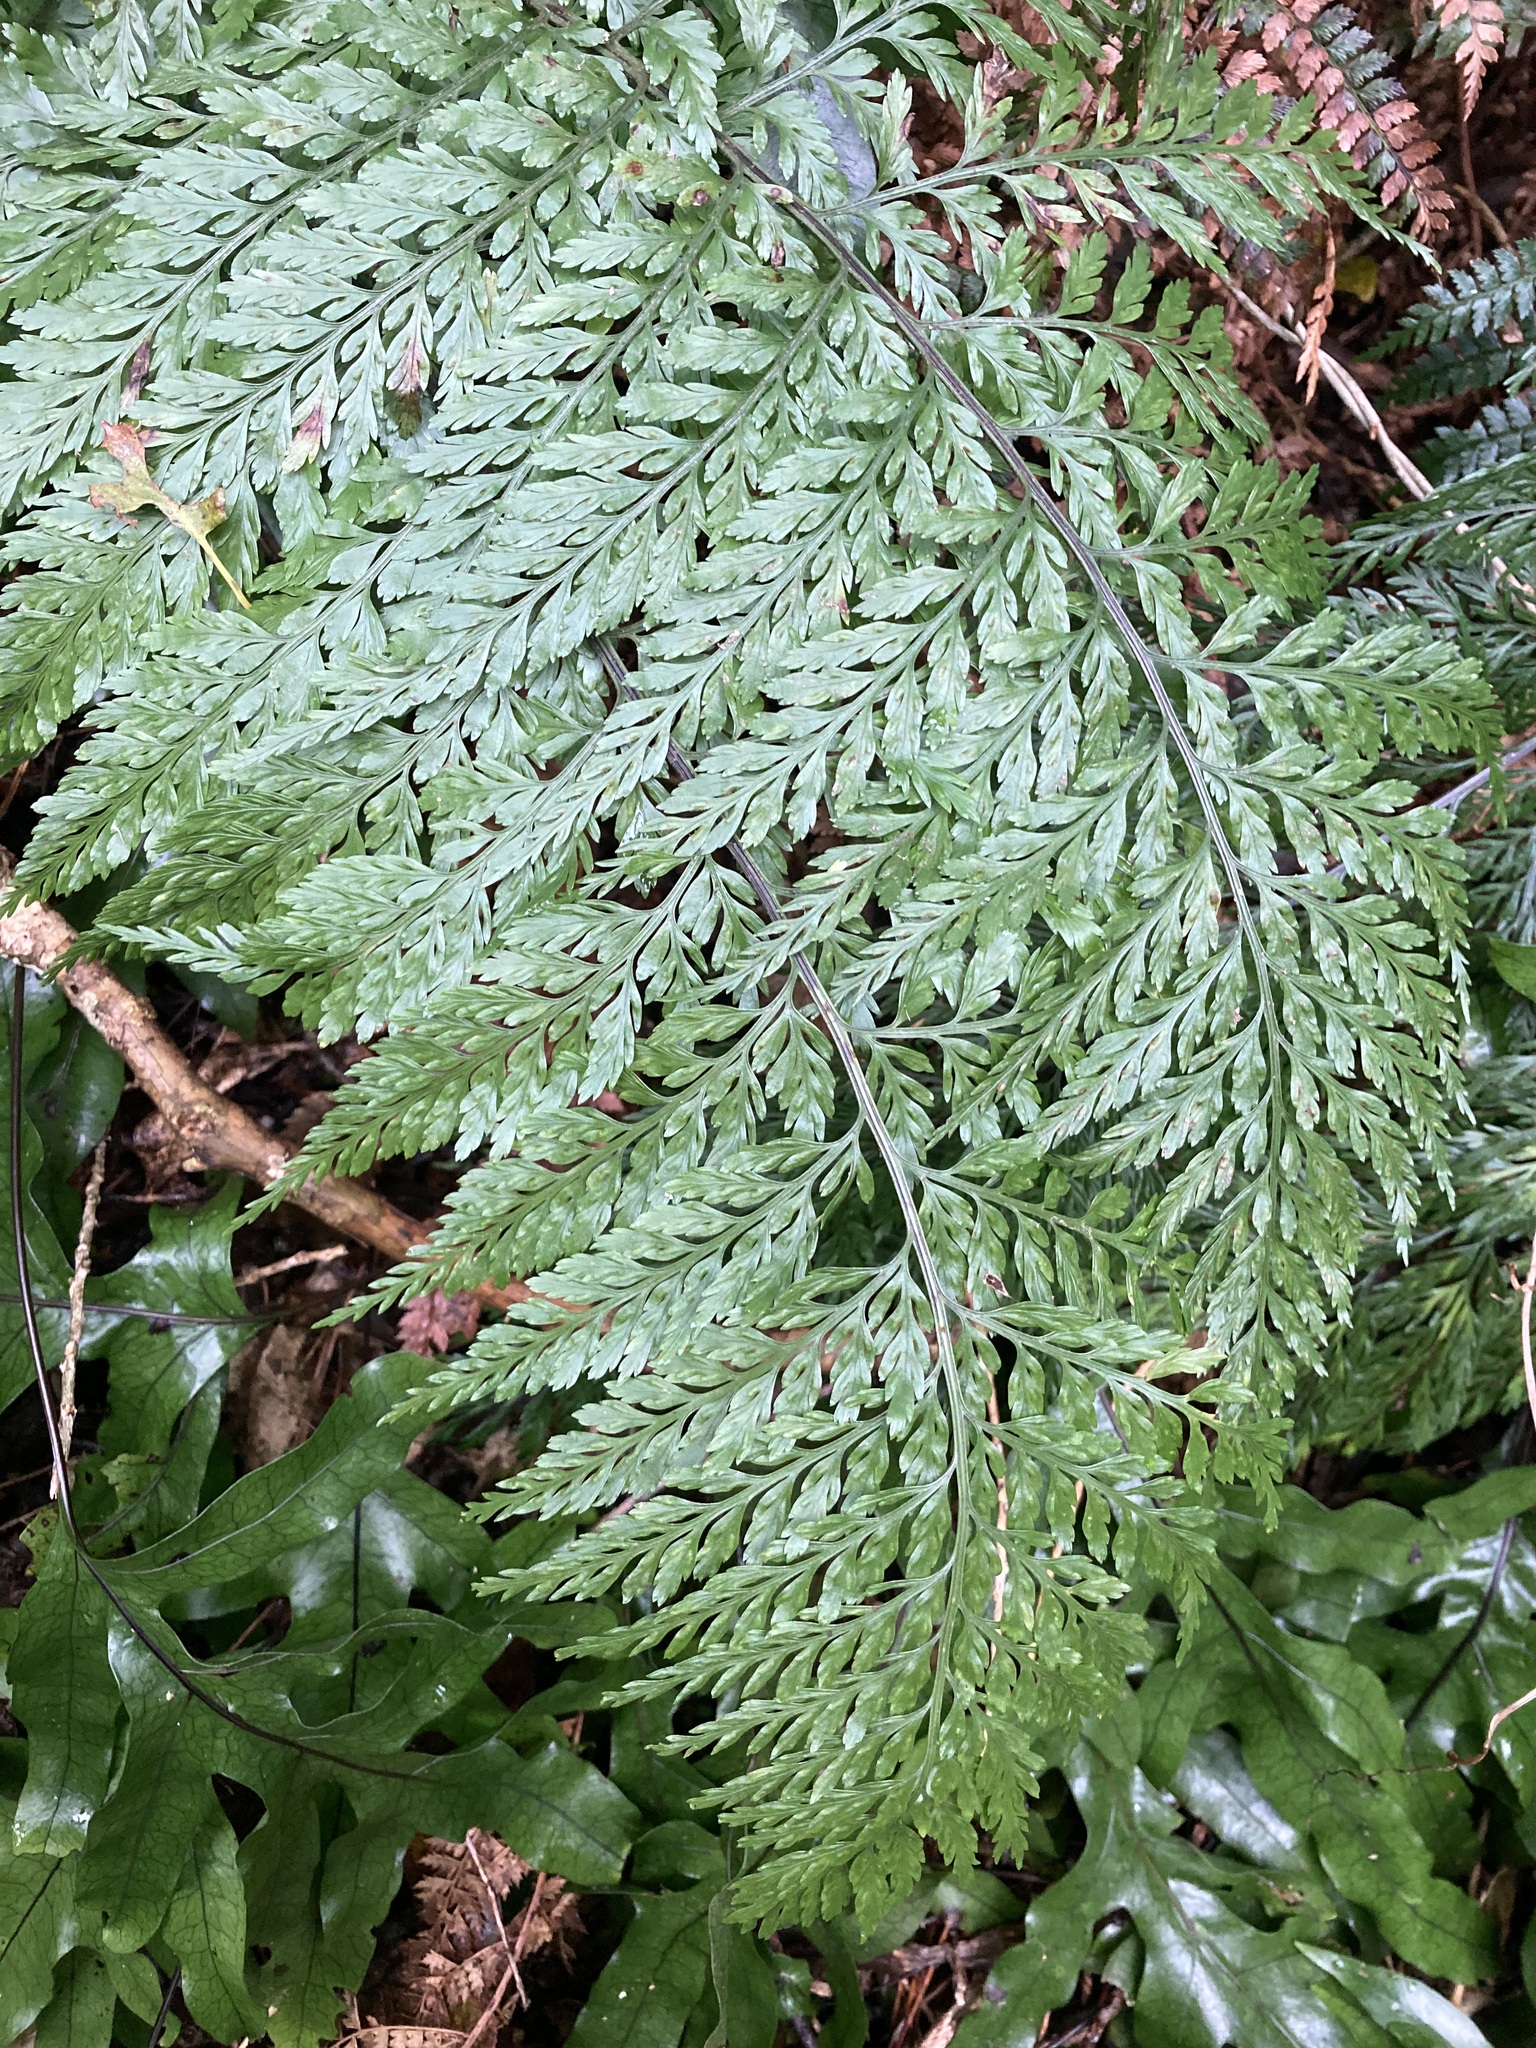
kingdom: Plantae
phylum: Tracheophyta
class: Polypodiopsida
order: Polypodiales
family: Aspleniaceae
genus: Asplenium
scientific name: Asplenium
